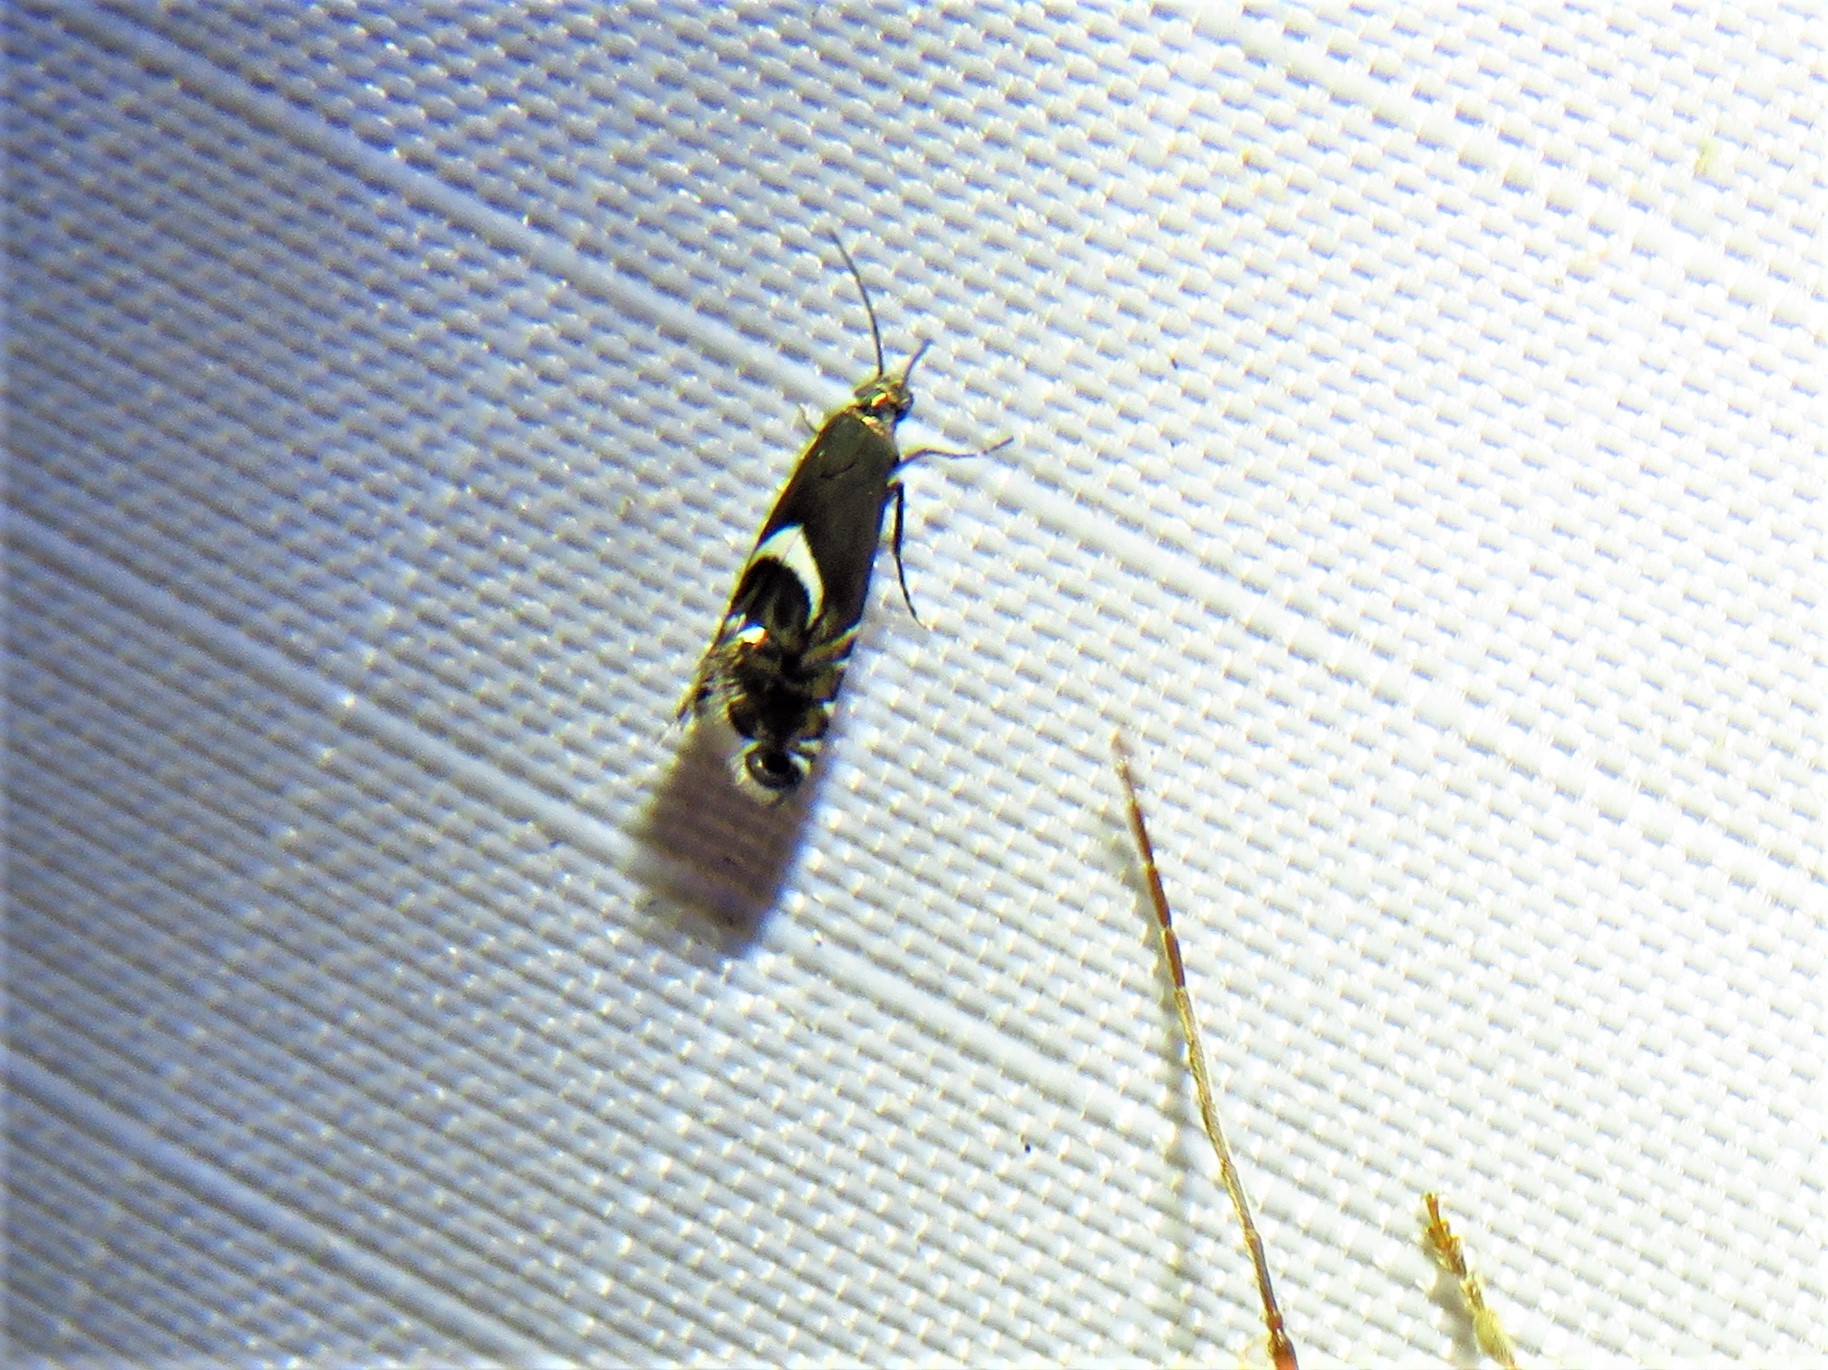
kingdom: Animalia
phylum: Arthropoda
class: Insecta
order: Lepidoptera
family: Glyphipterigidae
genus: Glyphipterix
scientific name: Glyphipterix Diploschizia impigritella
